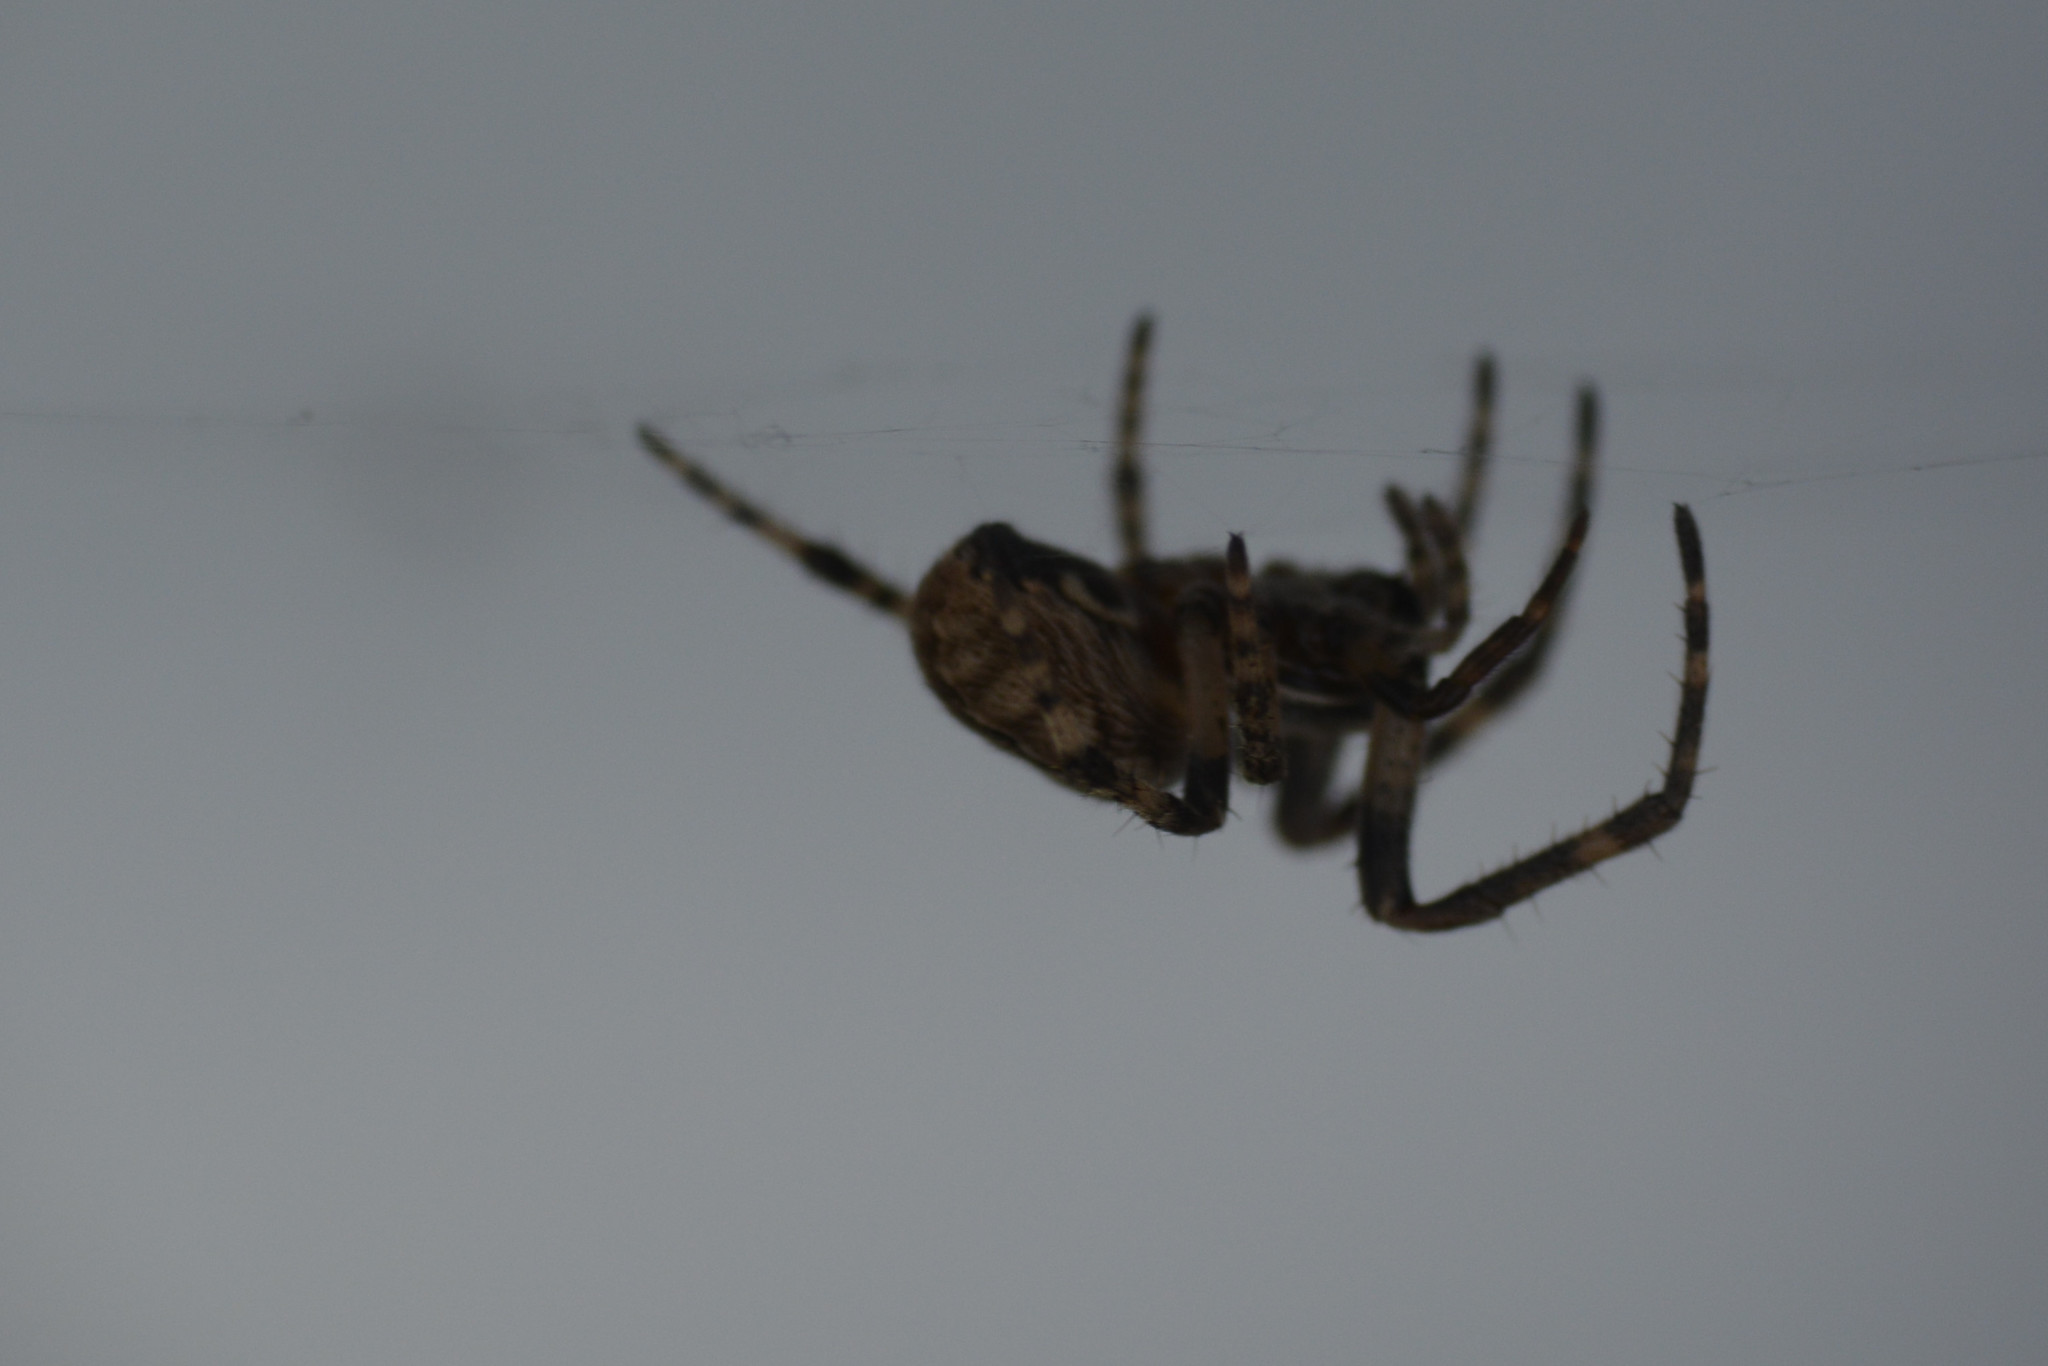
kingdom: Animalia
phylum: Arthropoda
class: Arachnida
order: Araneae
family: Araneidae
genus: Larinioides
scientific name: Larinioides sclopetarius
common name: Bridge orbweaver
